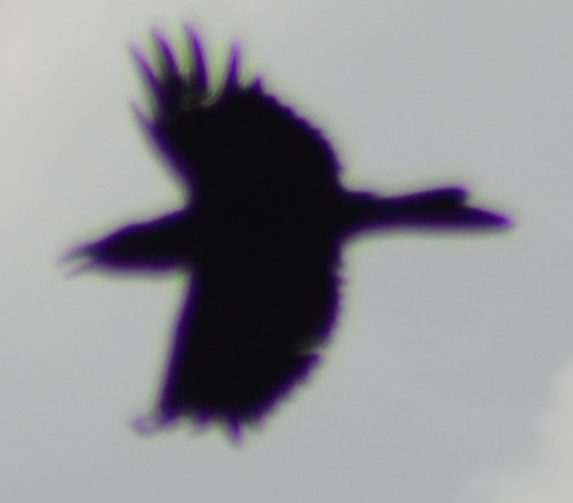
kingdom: Animalia
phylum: Chordata
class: Aves
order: Passeriformes
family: Corvidae
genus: Corvus
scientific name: Corvus corax
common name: Common raven
